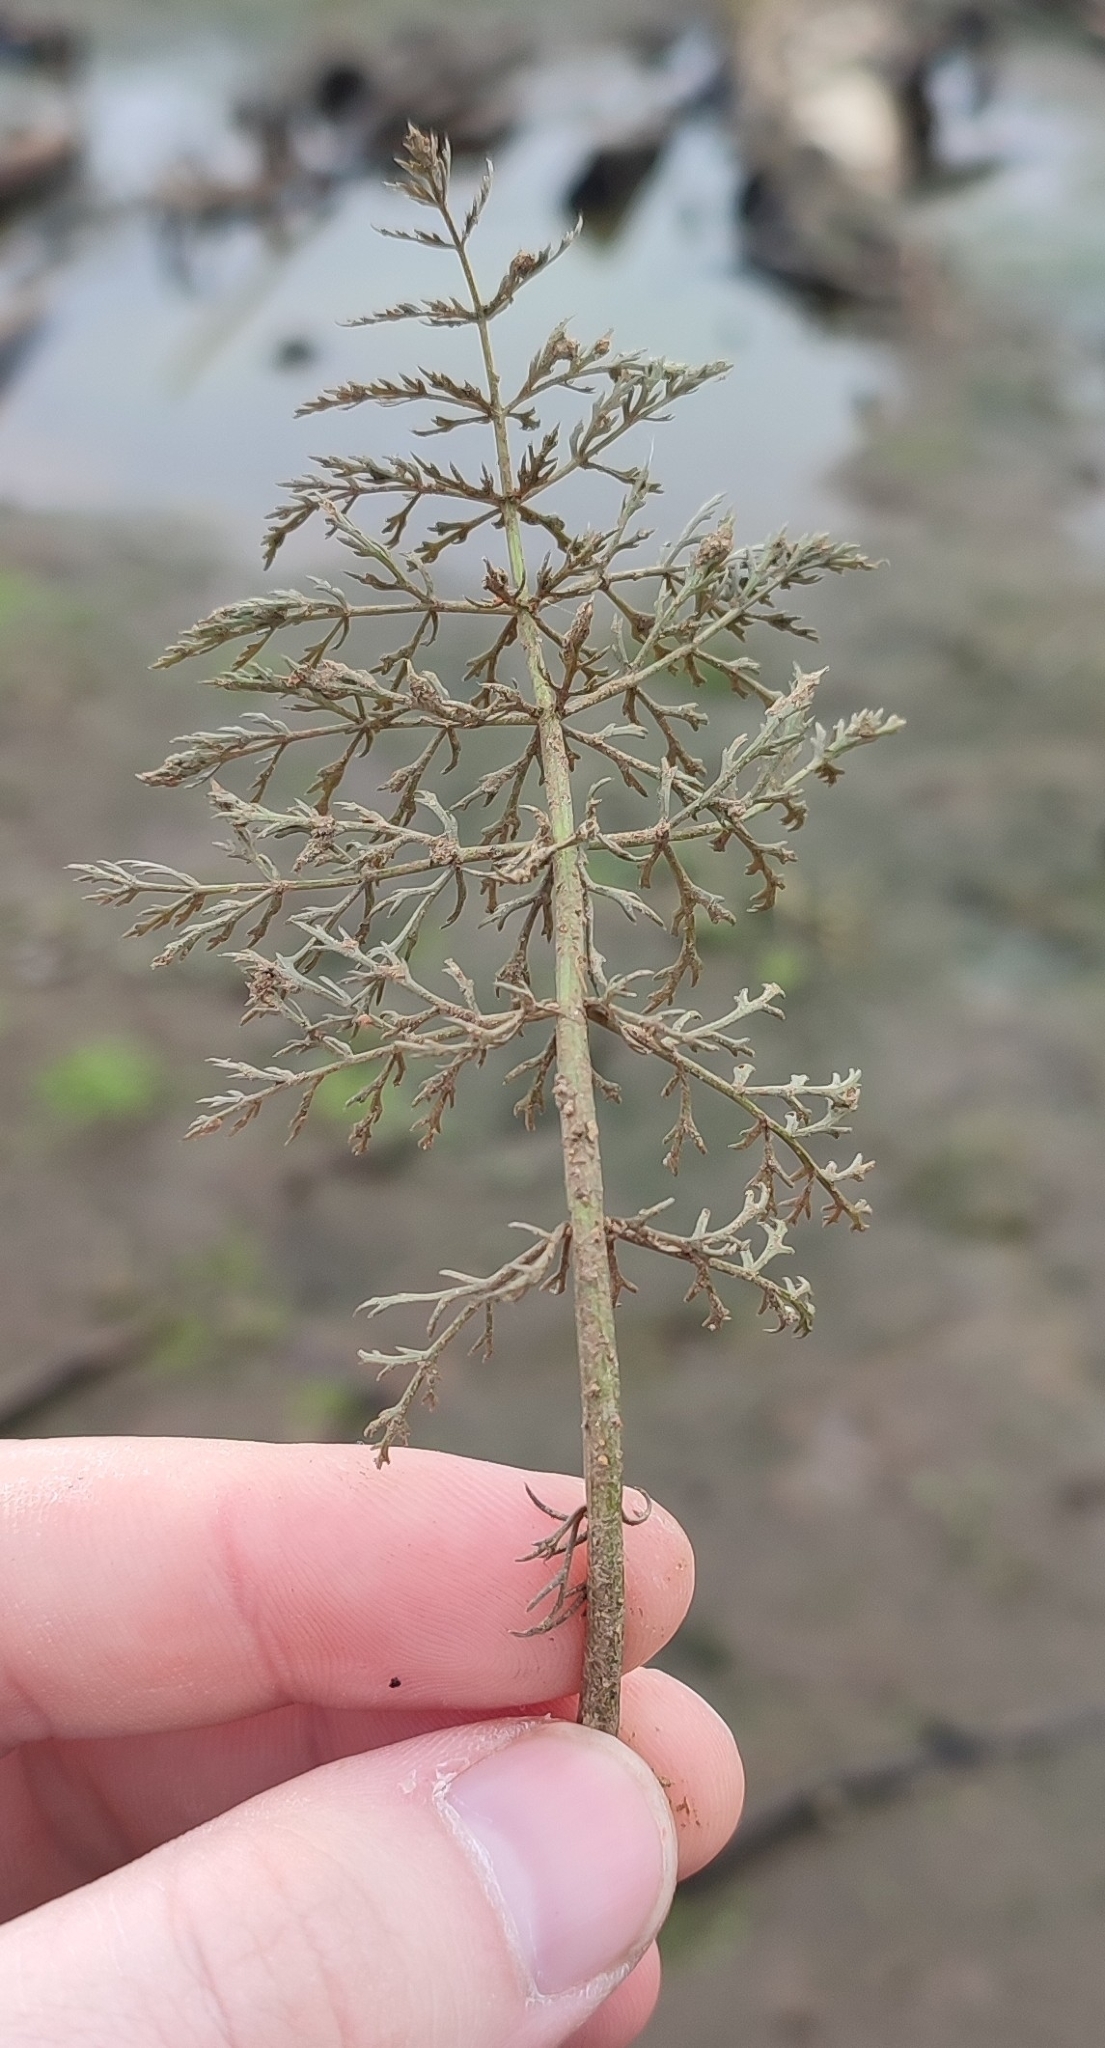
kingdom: Plantae
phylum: Tracheophyta
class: Magnoliopsida
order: Apiales
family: Apiaceae
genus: Sium
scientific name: Sium latifolium
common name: Greater water-parsnip
